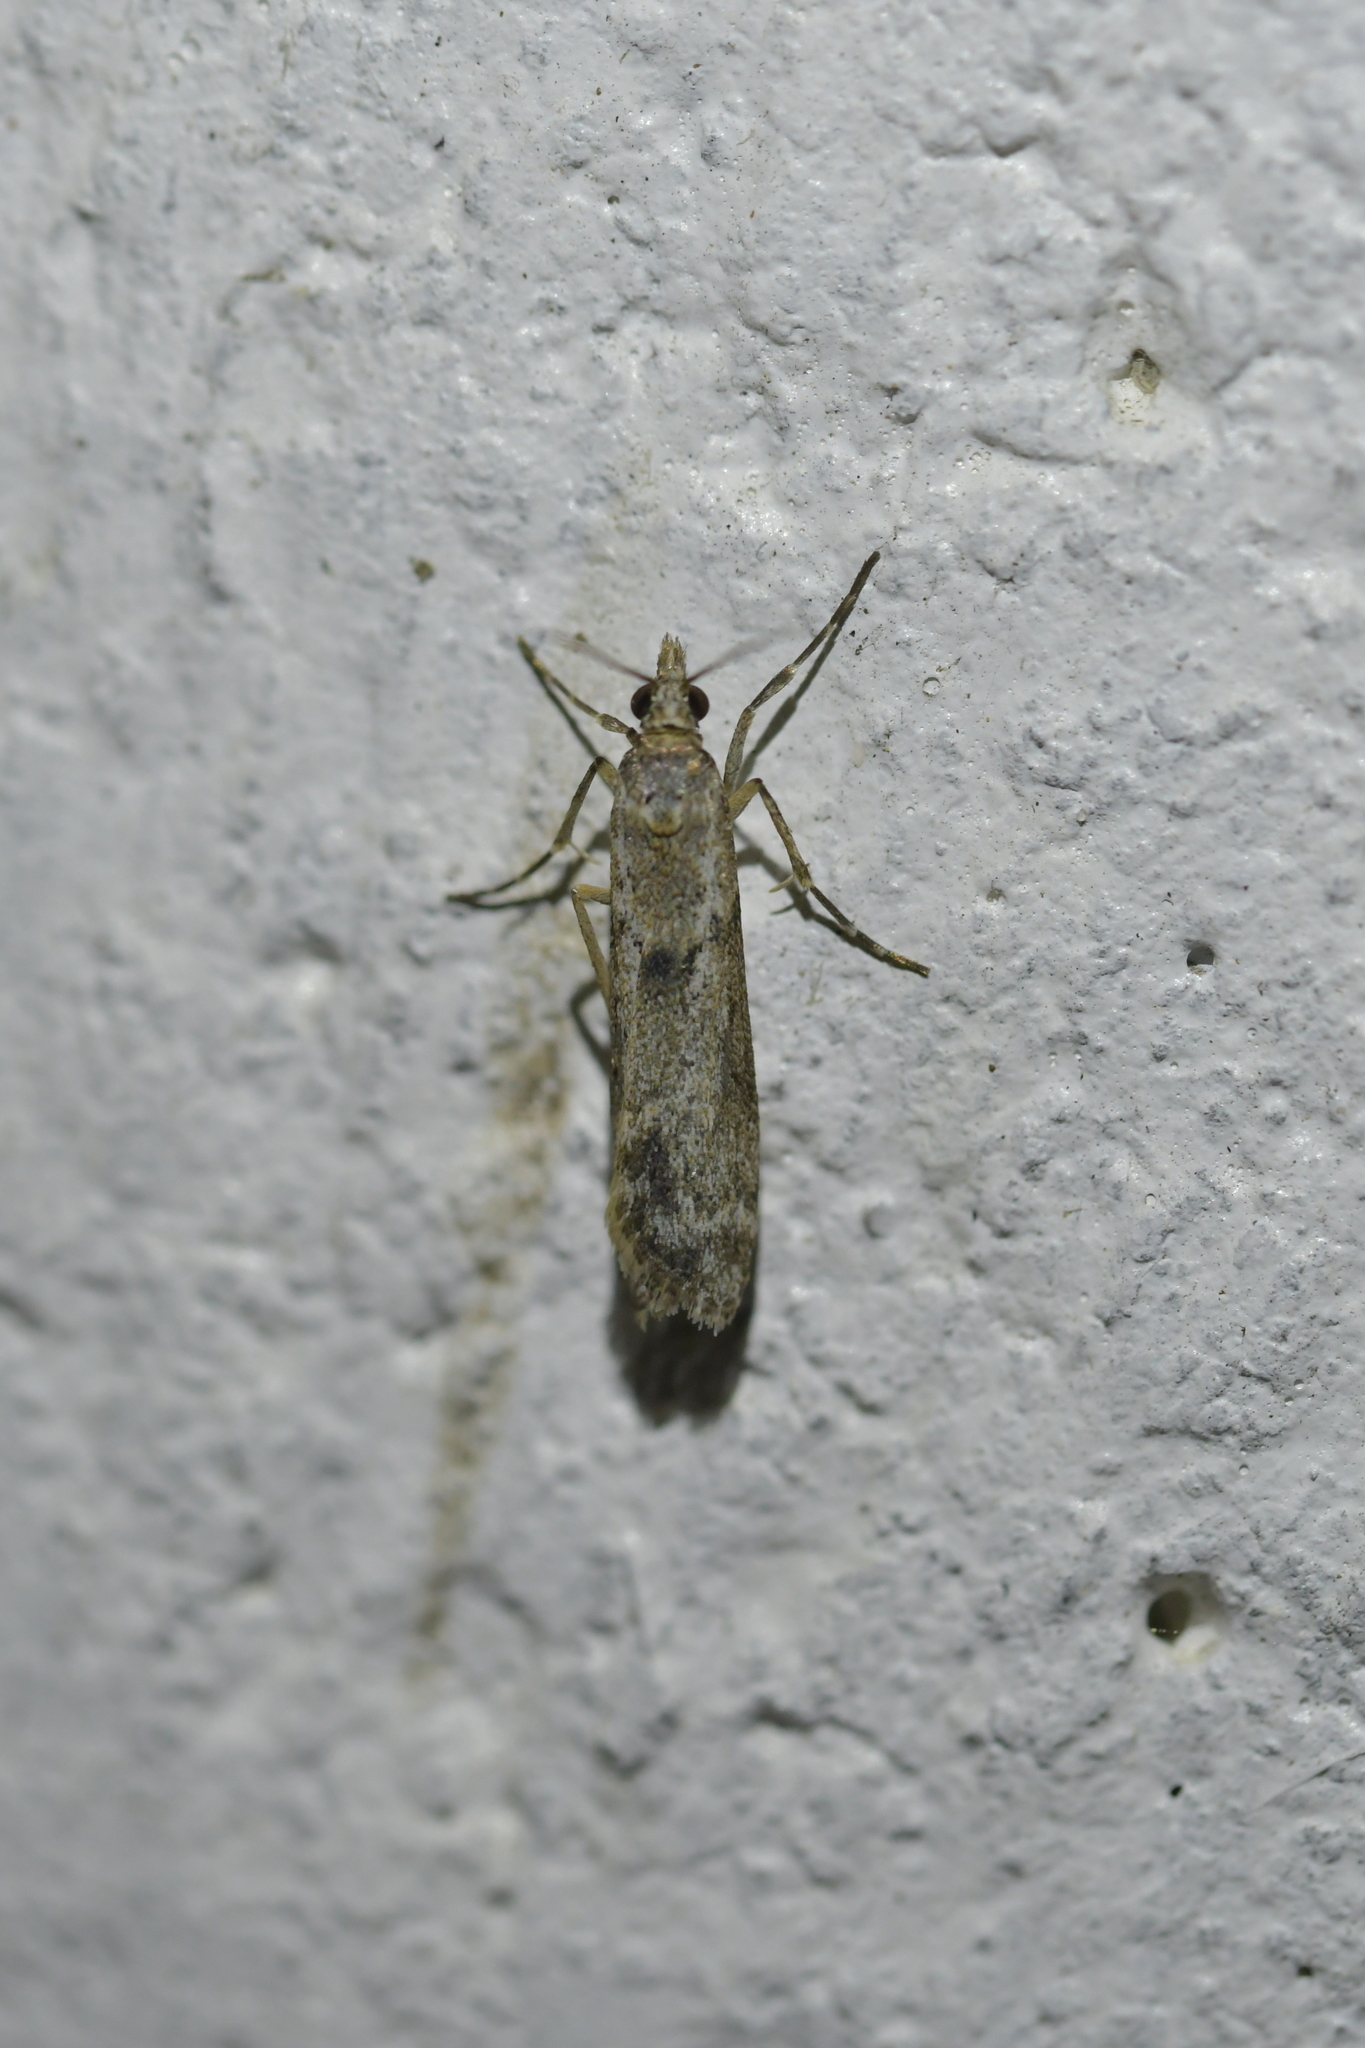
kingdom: Animalia
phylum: Arthropoda
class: Insecta
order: Lepidoptera
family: Crambidae
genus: Eudonia
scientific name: Eudonia leptalea
